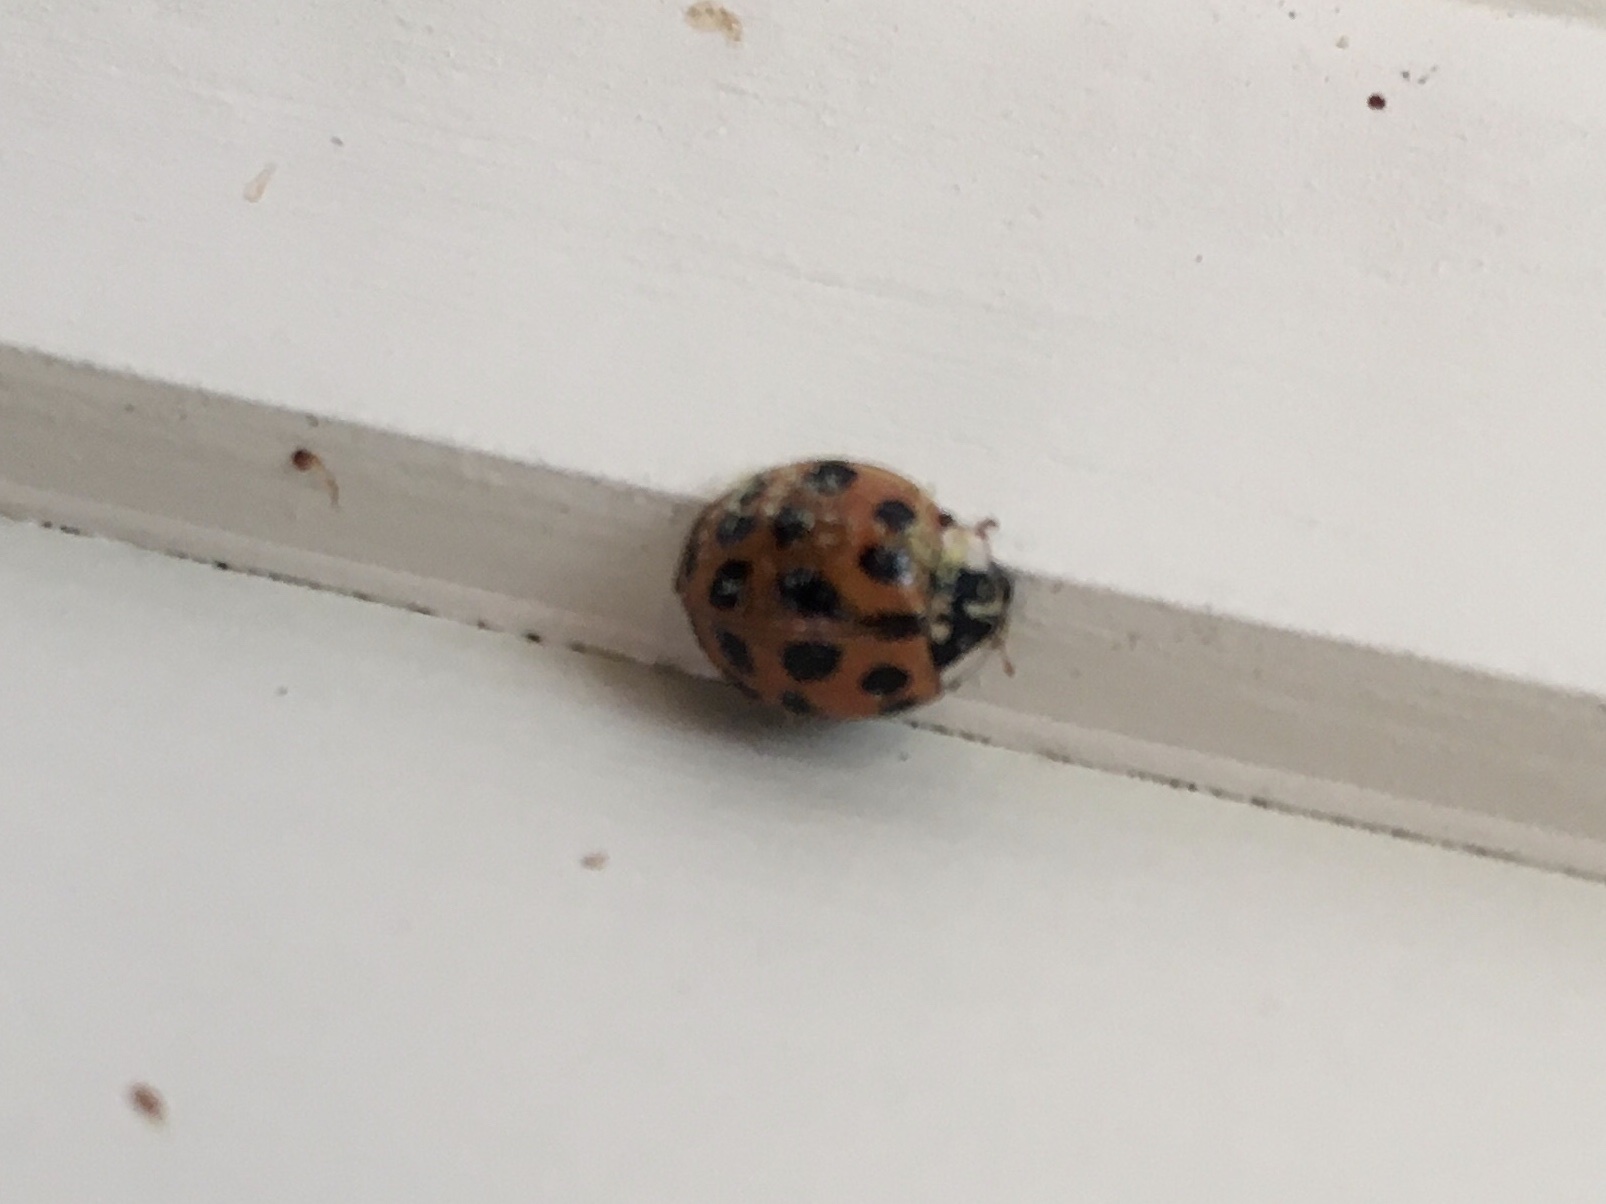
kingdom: Animalia
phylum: Arthropoda
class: Insecta
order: Coleoptera
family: Coccinellidae
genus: Harmonia
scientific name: Harmonia axyridis
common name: Harlequin ladybird
